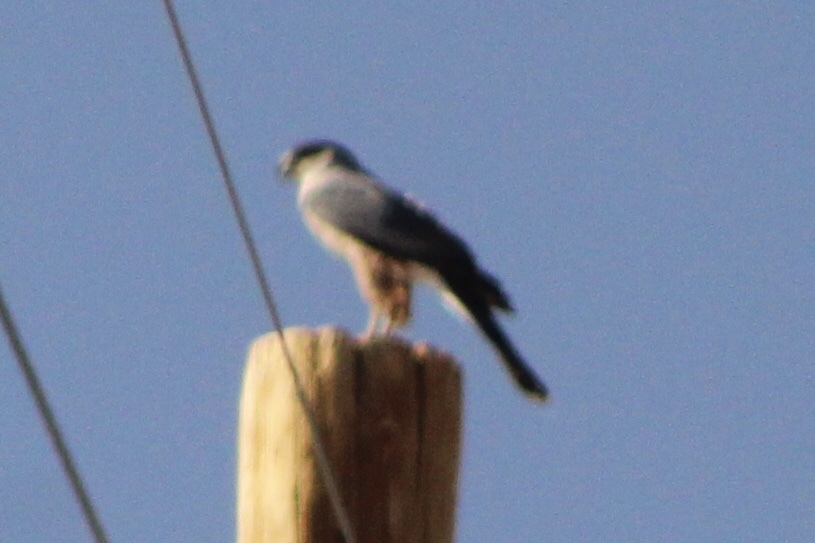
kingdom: Animalia
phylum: Chordata
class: Aves
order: Accipitriformes
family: Accipitridae
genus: Accipiter
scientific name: Accipiter cooperii
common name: Cooper's hawk
